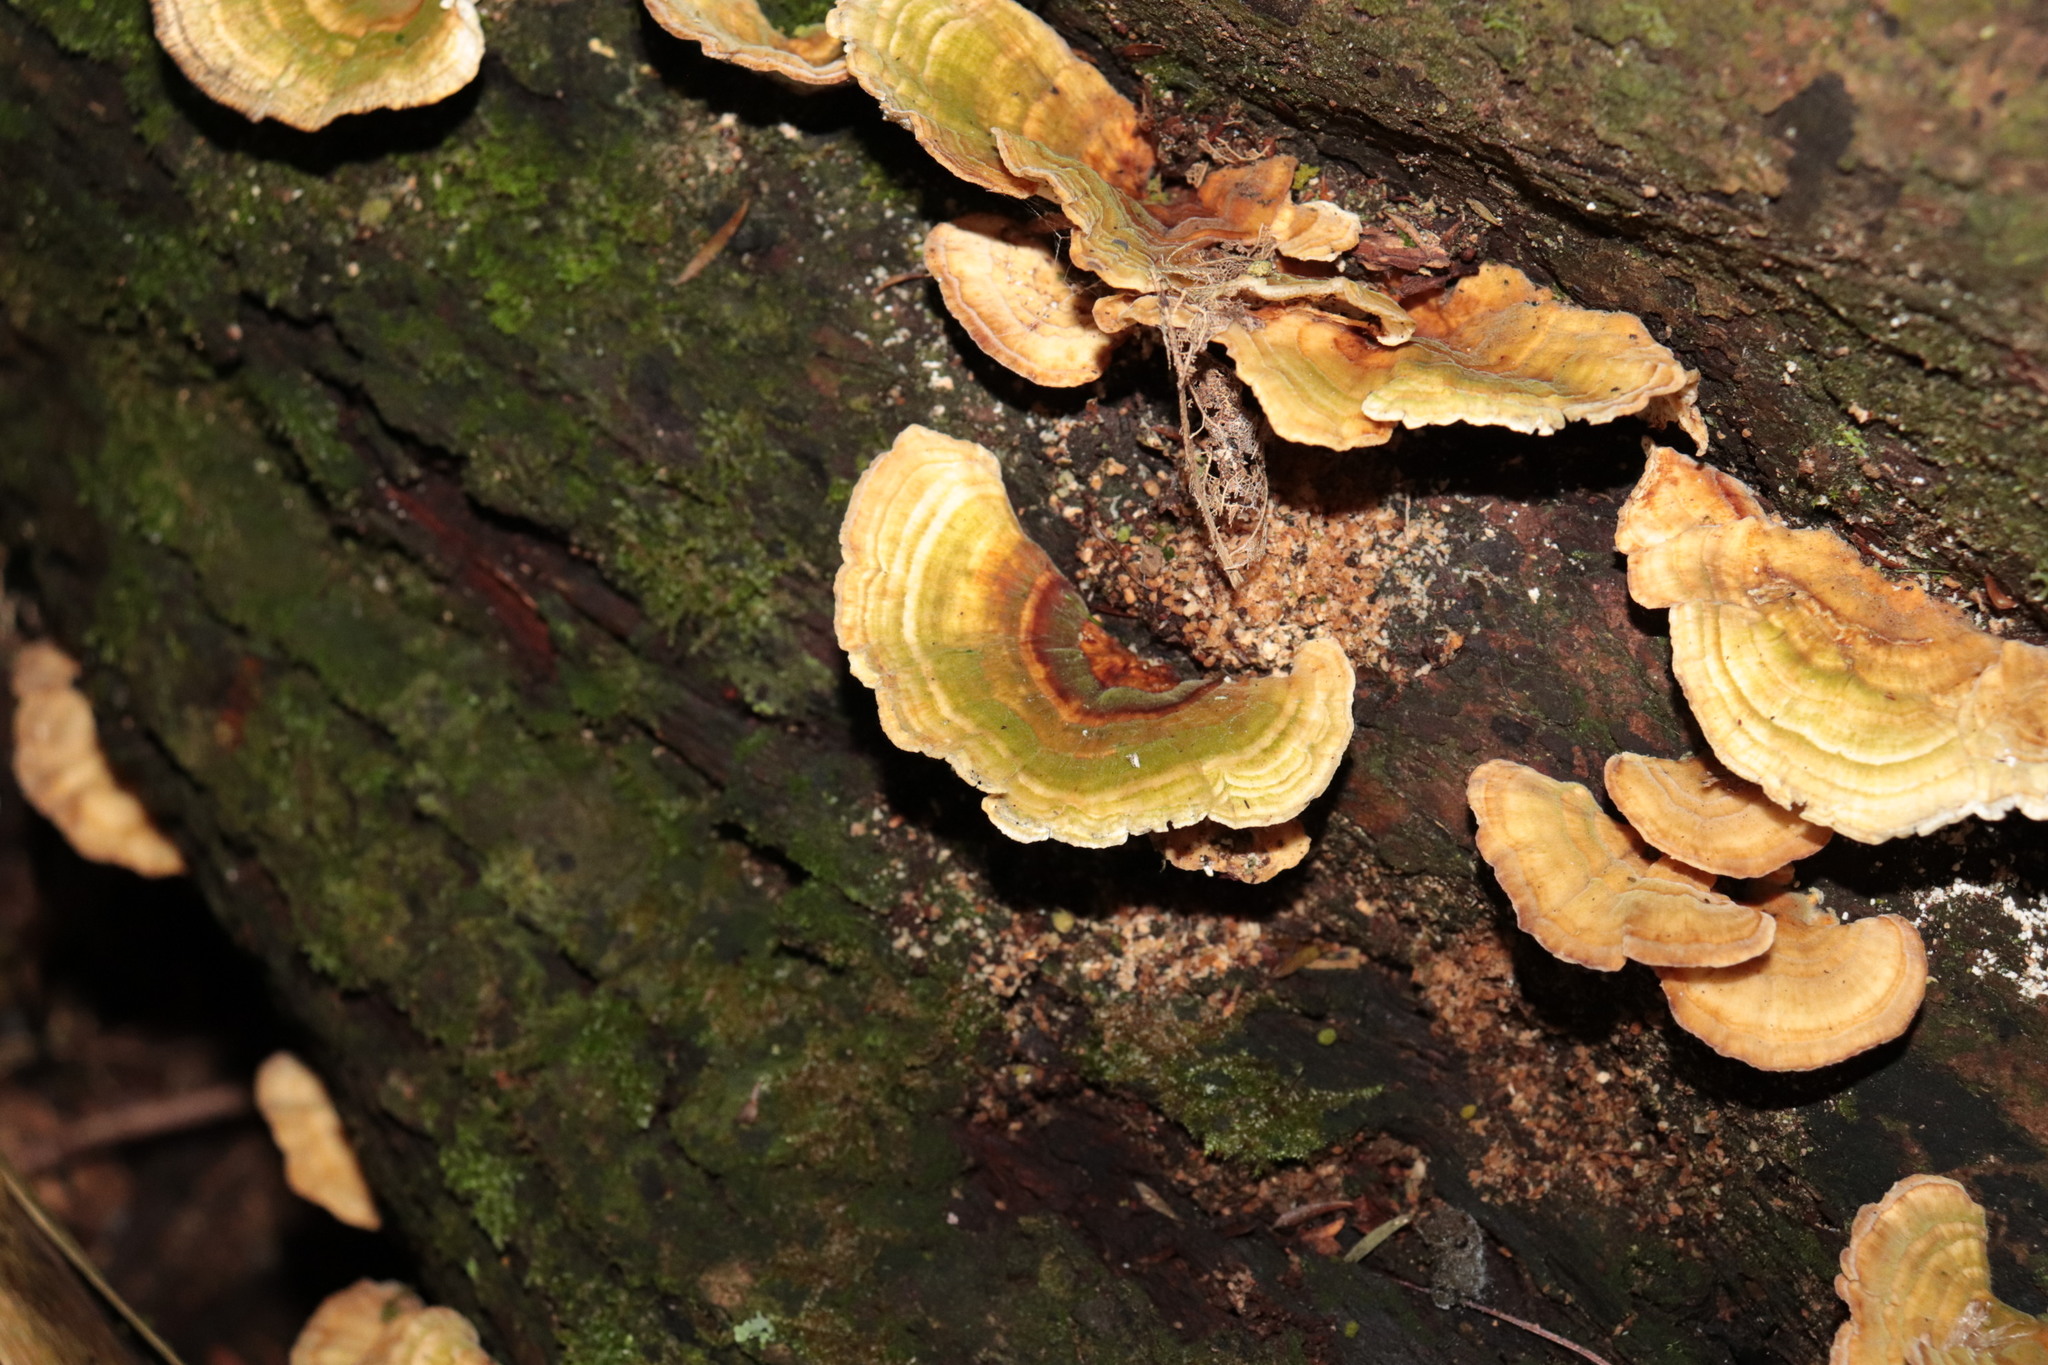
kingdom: Fungi
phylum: Basidiomycota
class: Agaricomycetes
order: Polyporales
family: Polyporaceae
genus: Trametes
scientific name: Trametes versicolor
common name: Turkeytail
